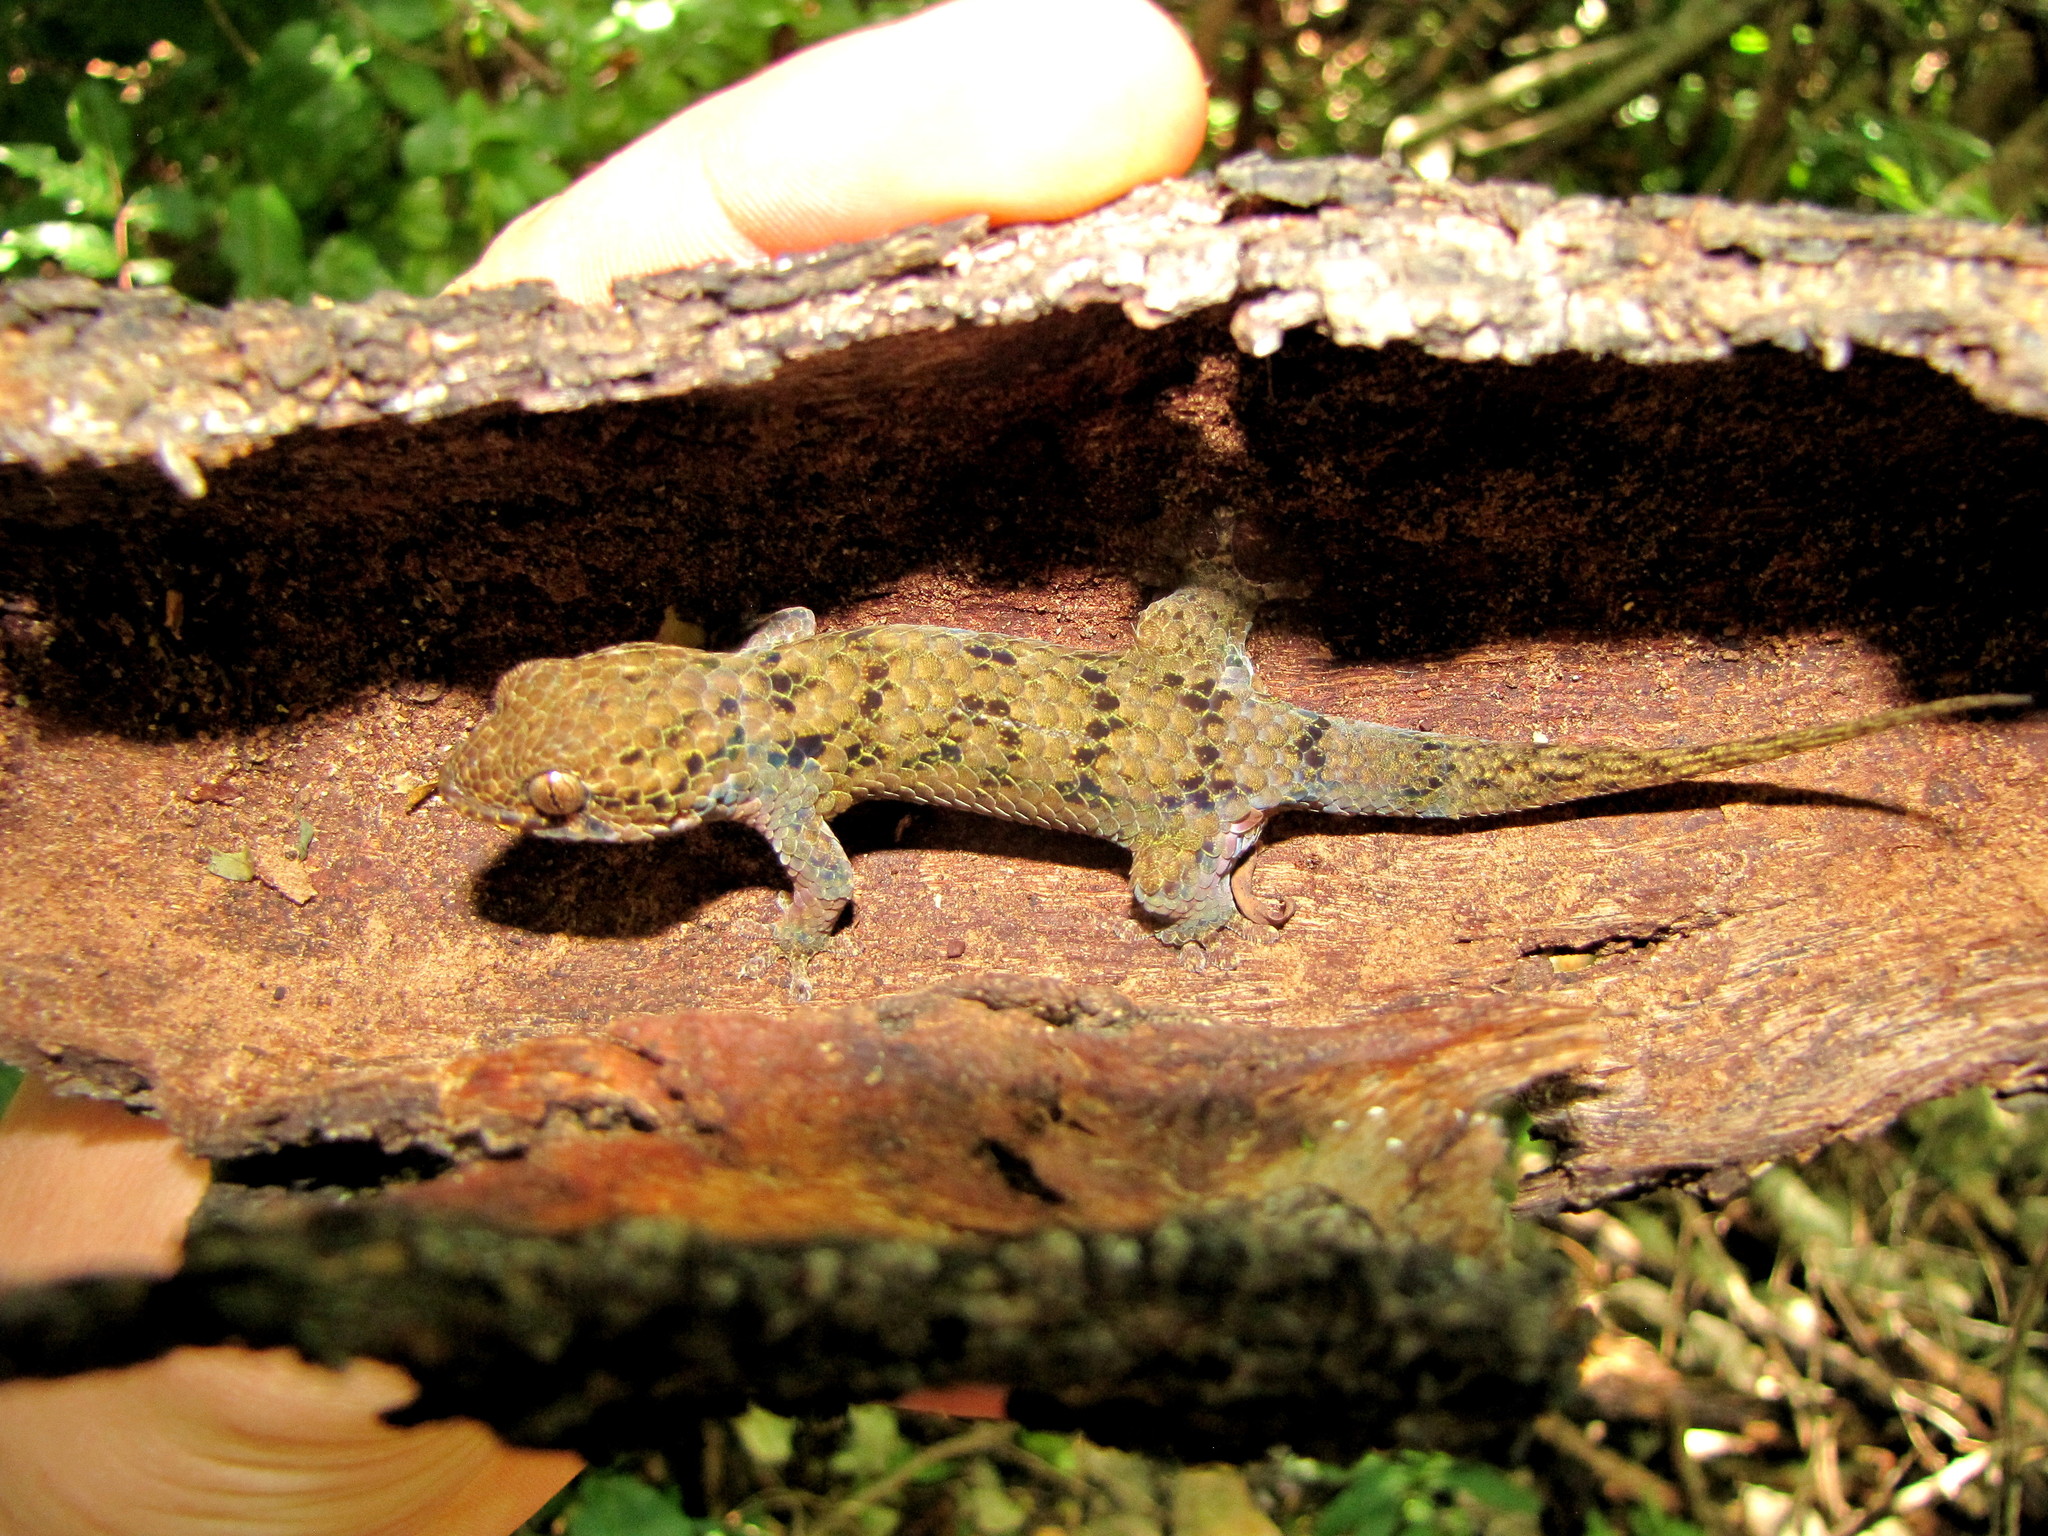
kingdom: Animalia
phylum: Chordata
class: Squamata
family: Gekkonidae
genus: Geckolepis
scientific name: Geckolepis maculata
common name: Peters' spotted gecko
